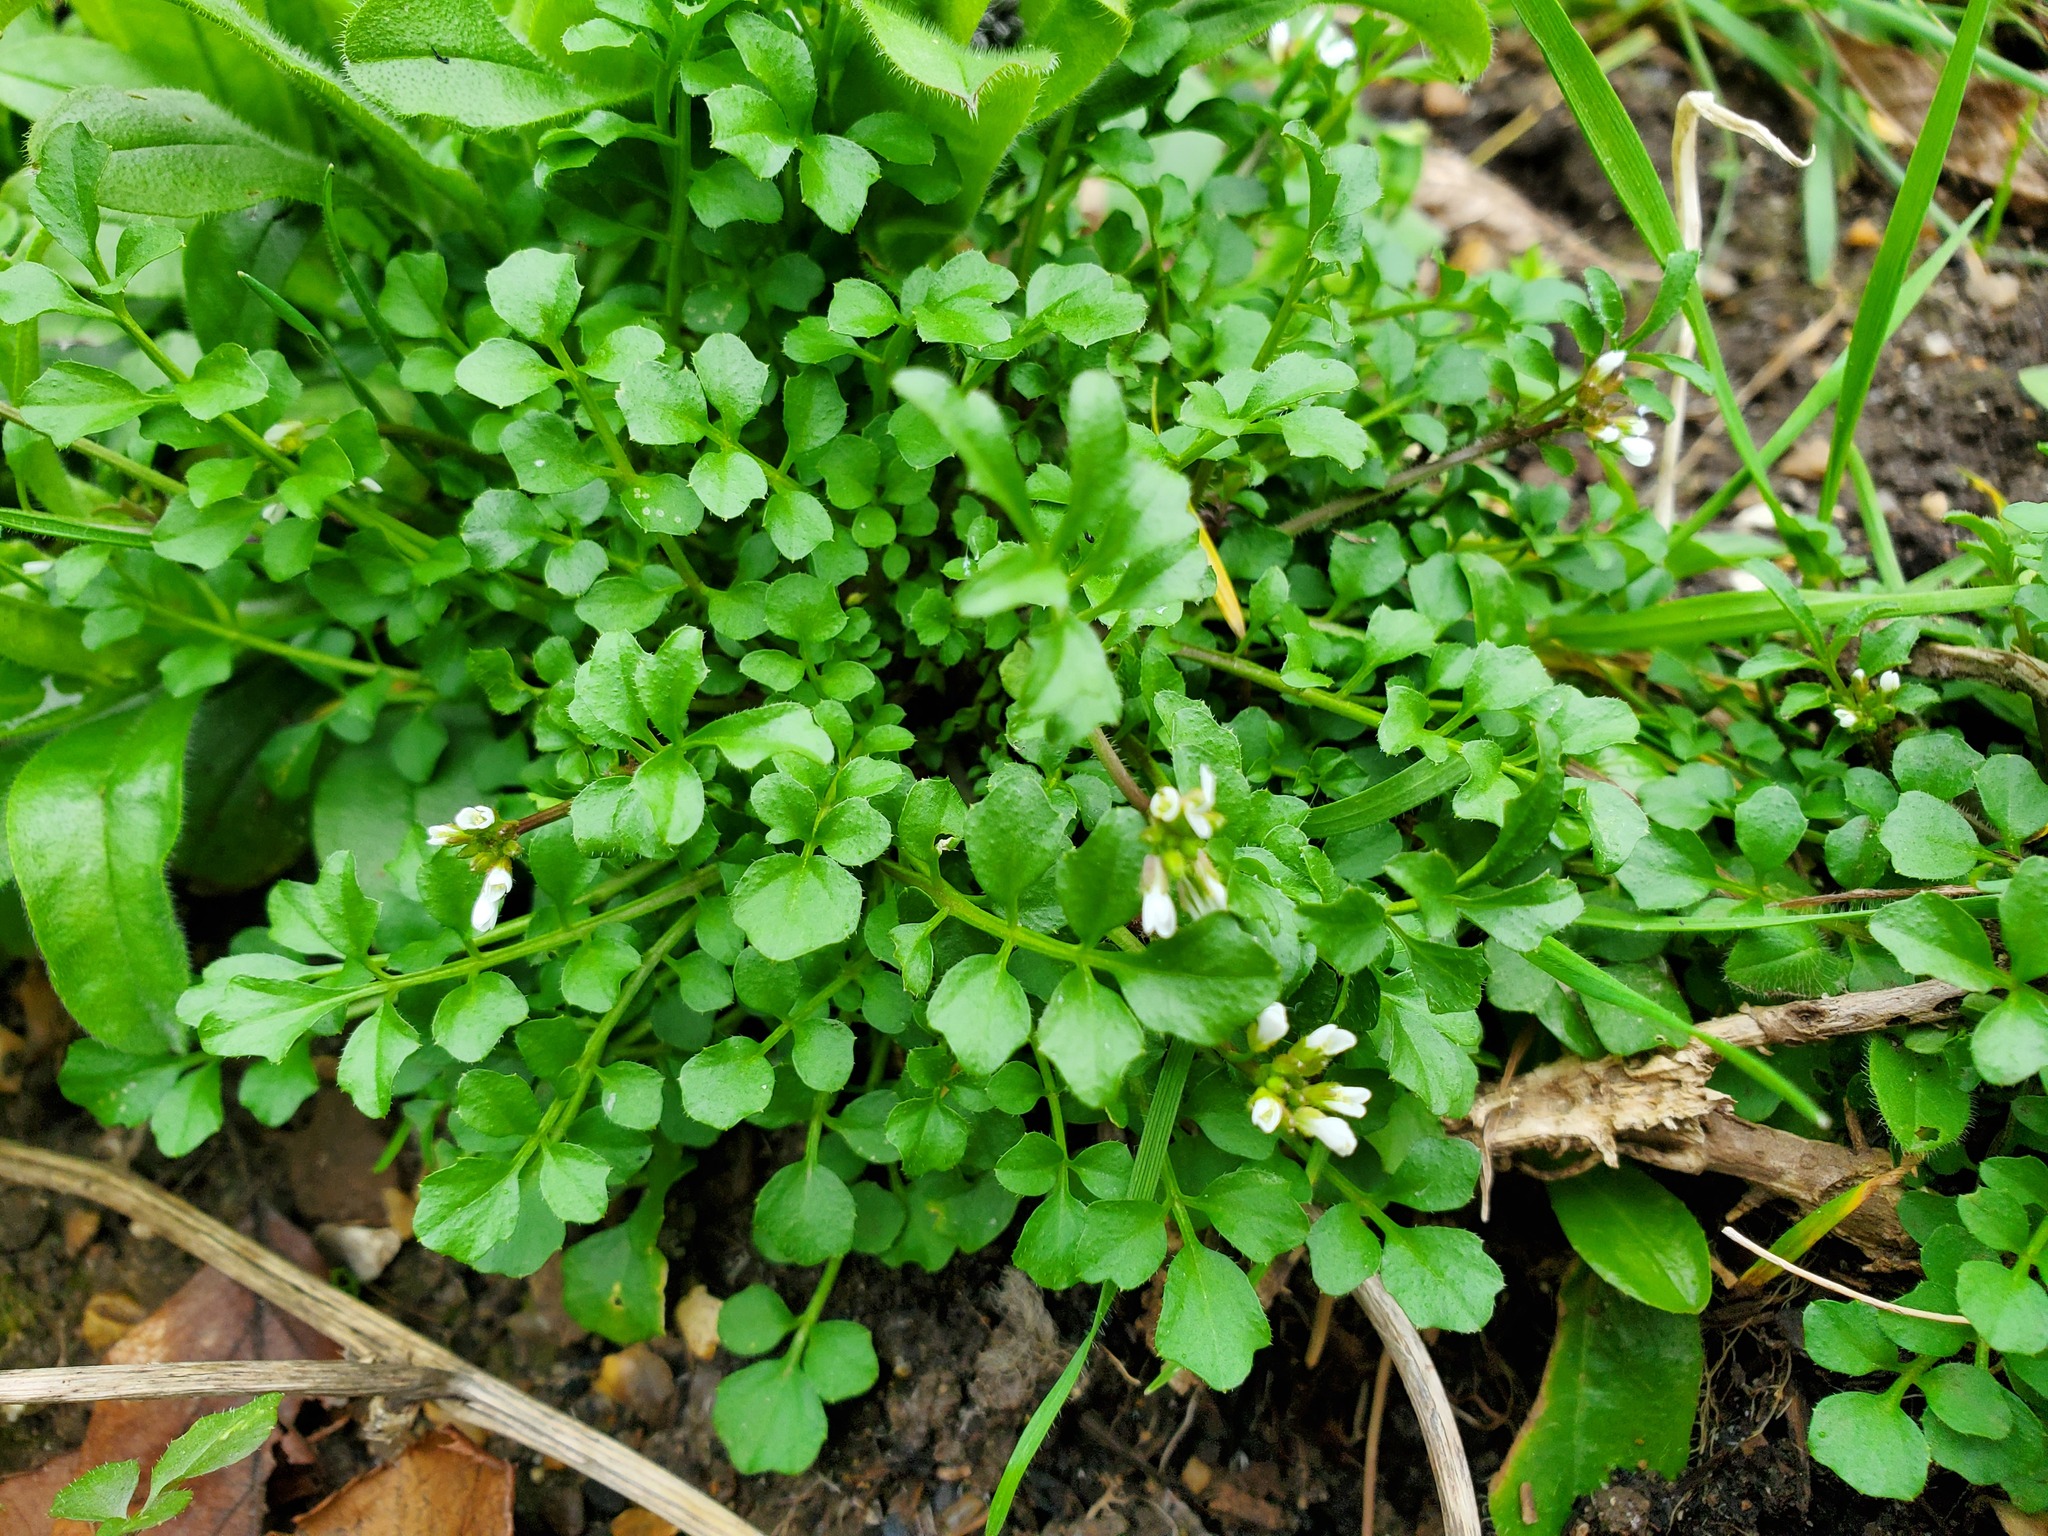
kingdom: Plantae
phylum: Tracheophyta
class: Magnoliopsida
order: Brassicales
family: Brassicaceae
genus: Cardamine
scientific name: Cardamine hirsuta
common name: Hairy bittercress
